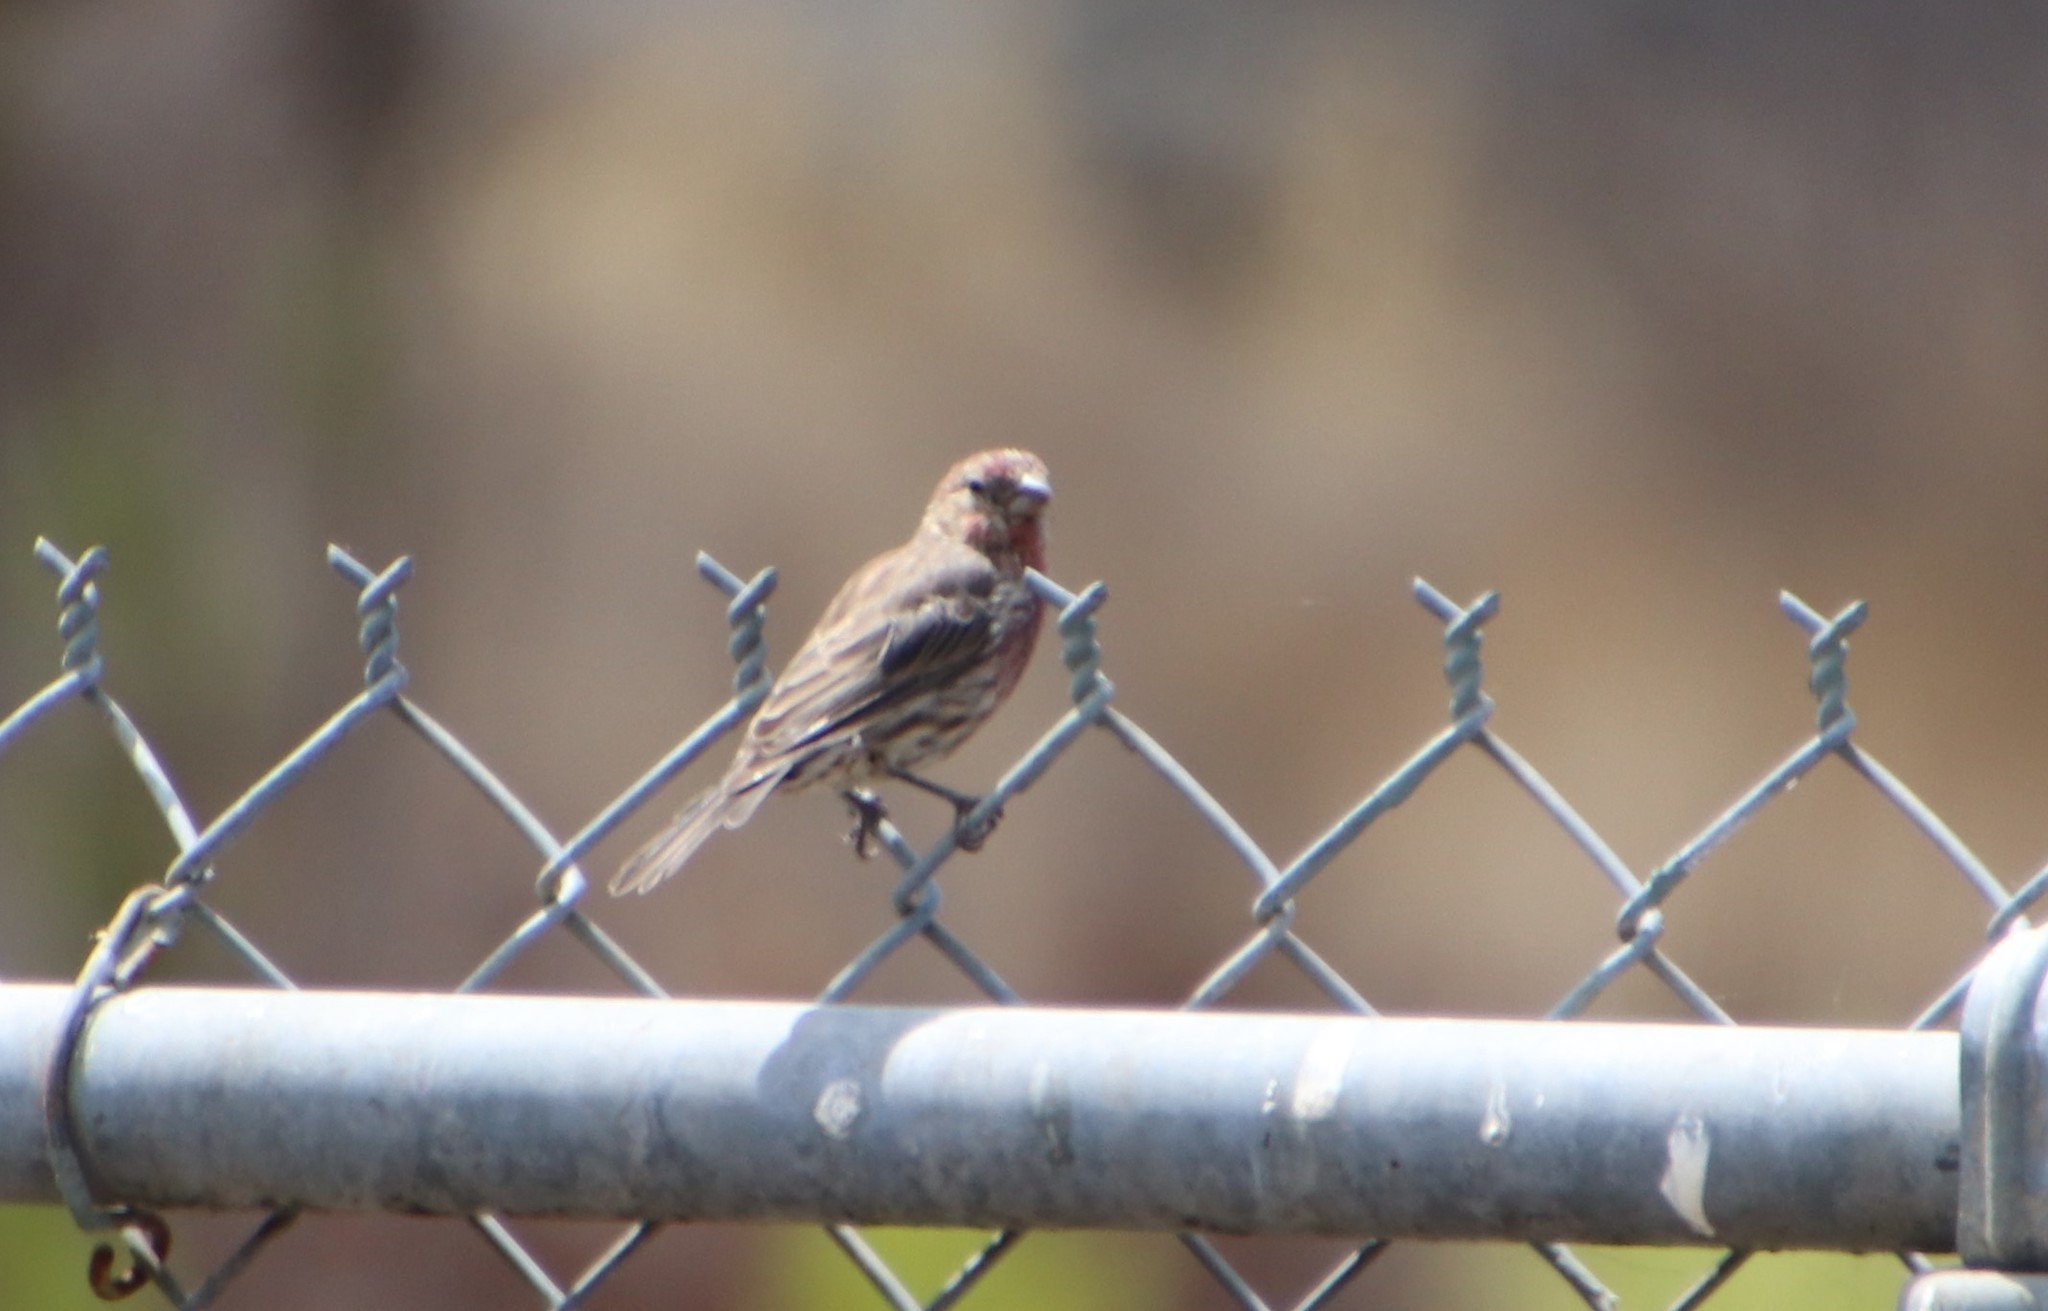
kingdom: Animalia
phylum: Chordata
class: Aves
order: Passeriformes
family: Fringillidae
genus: Haemorhous
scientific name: Haemorhous mexicanus
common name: House finch
